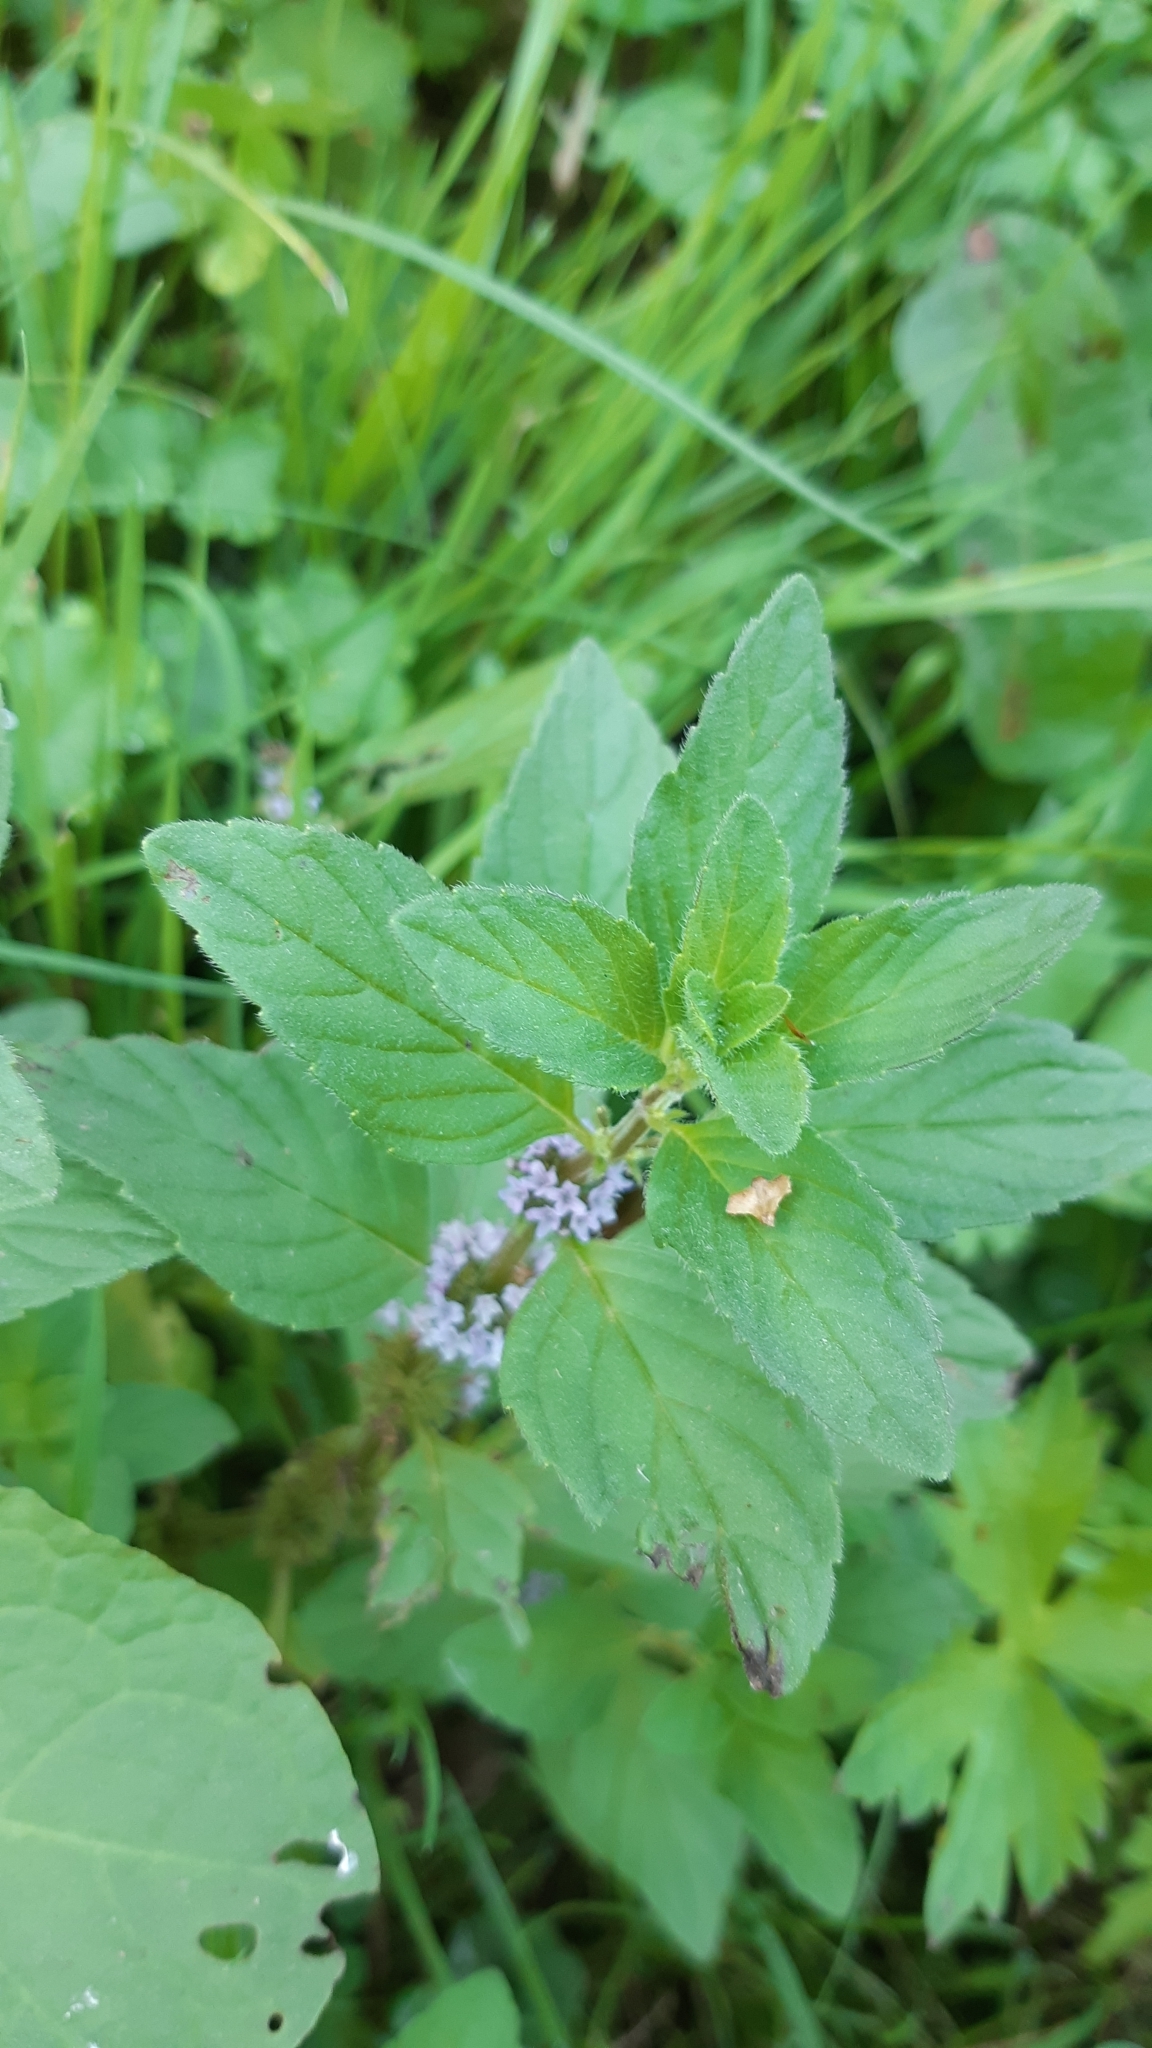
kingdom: Plantae
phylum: Tracheophyta
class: Magnoliopsida
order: Lamiales
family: Lamiaceae
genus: Mentha
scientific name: Mentha arvensis
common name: Corn mint
